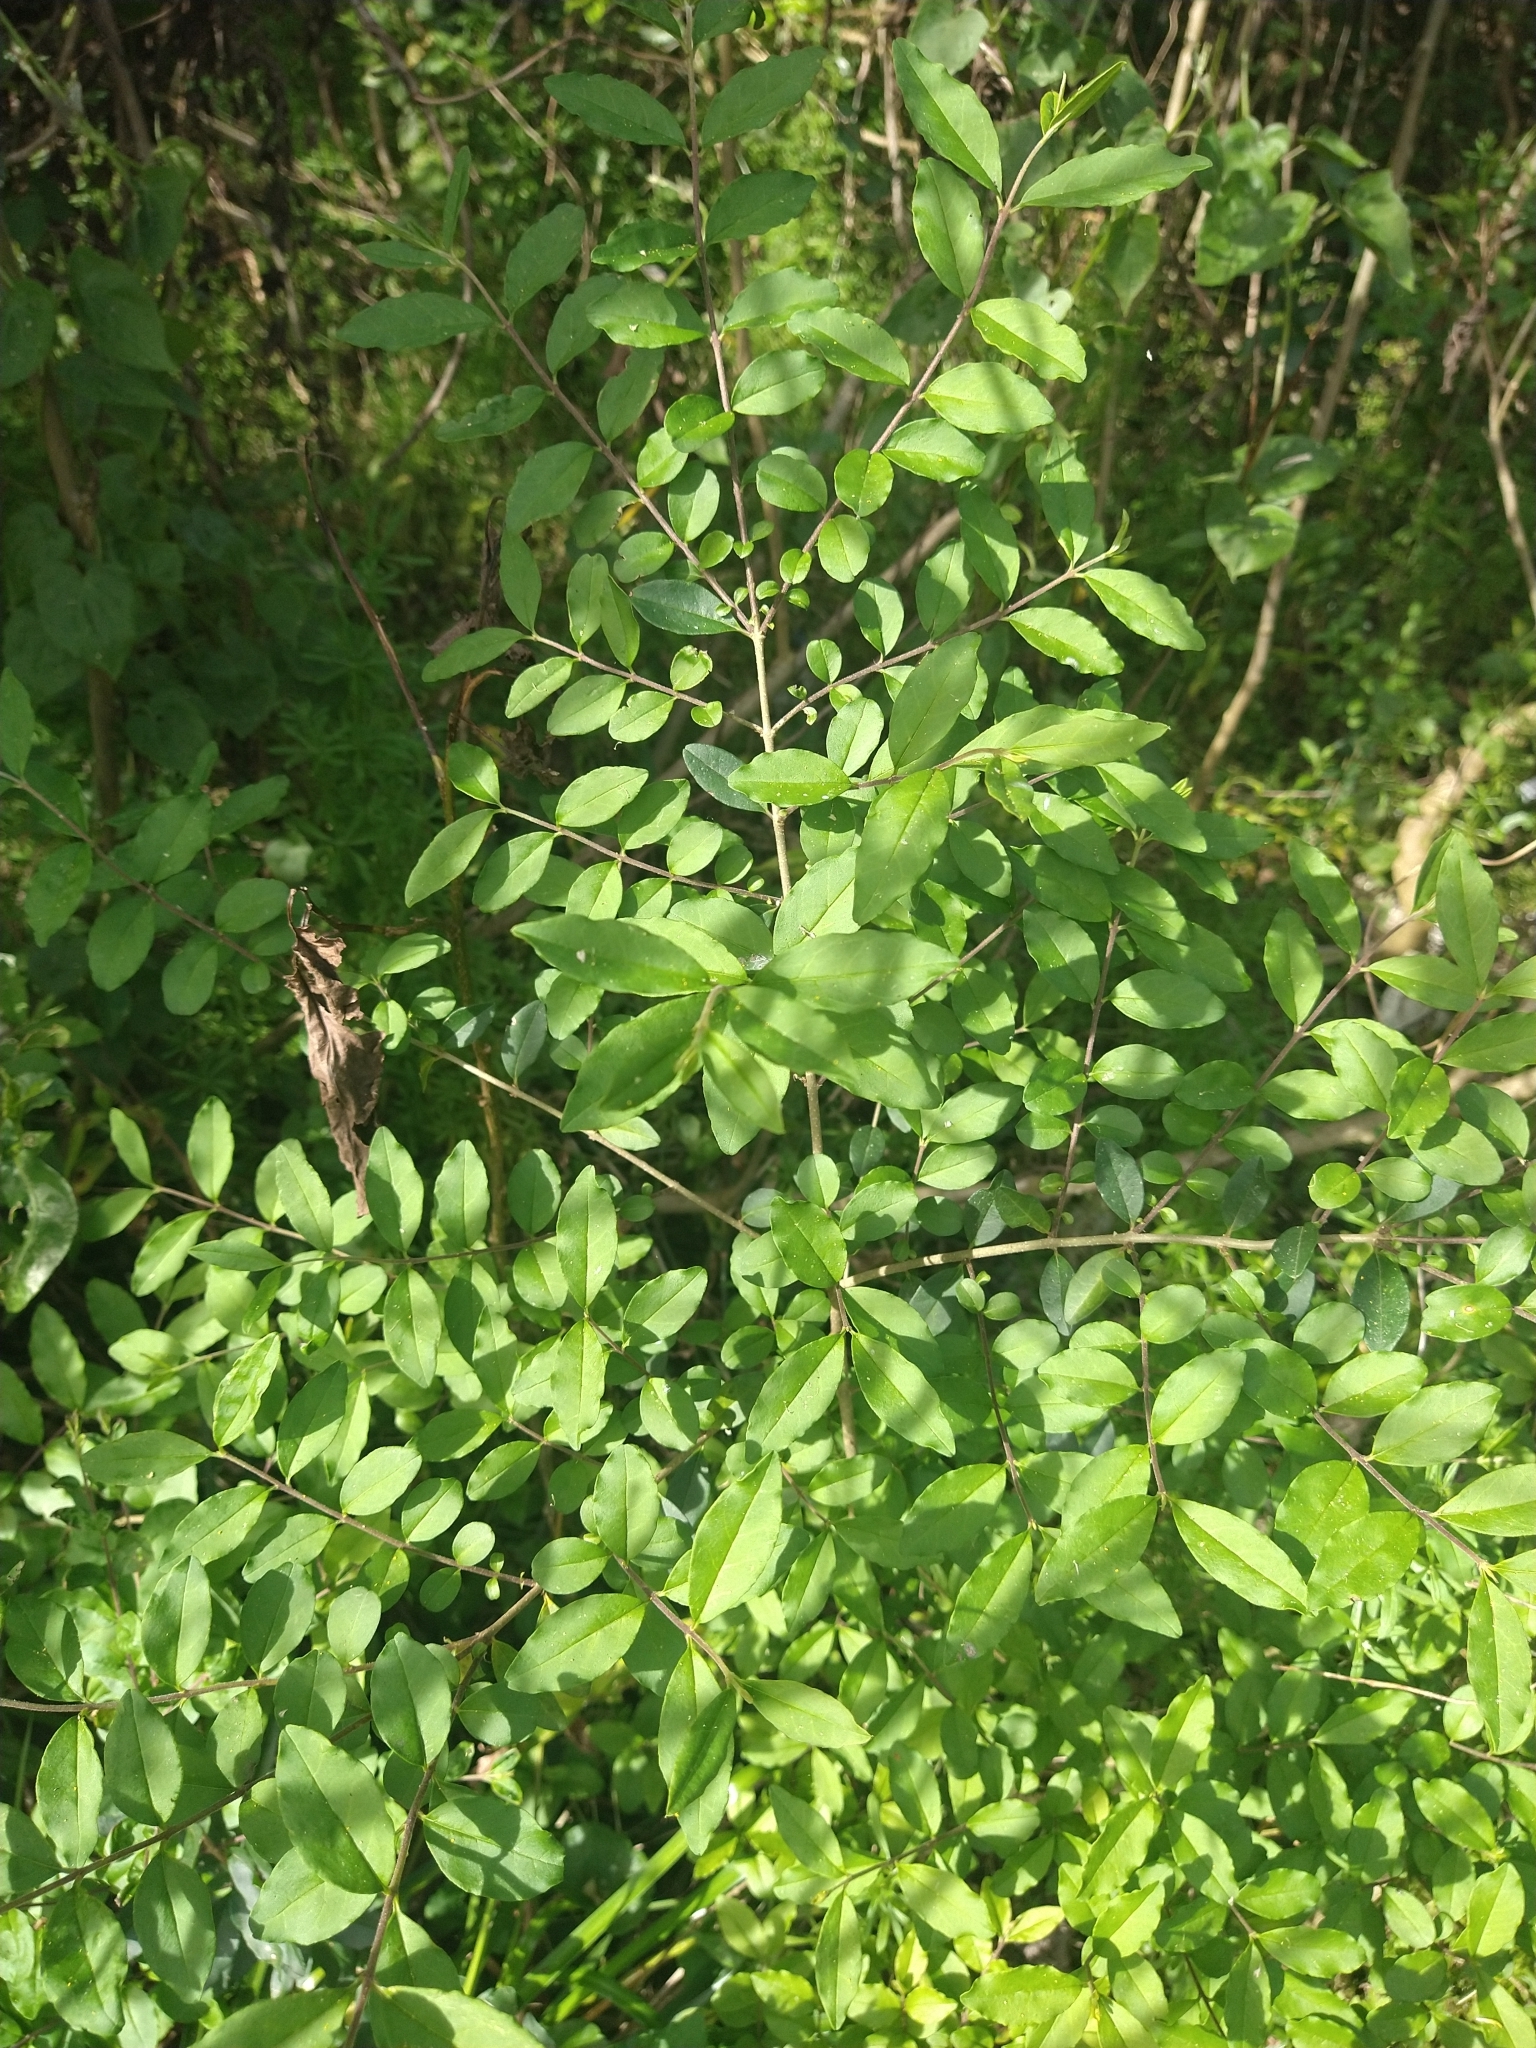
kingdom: Plantae
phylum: Tracheophyta
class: Magnoliopsida
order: Lamiales
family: Oleaceae
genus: Ligustrum
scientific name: Ligustrum sinense
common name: Chinese privet
